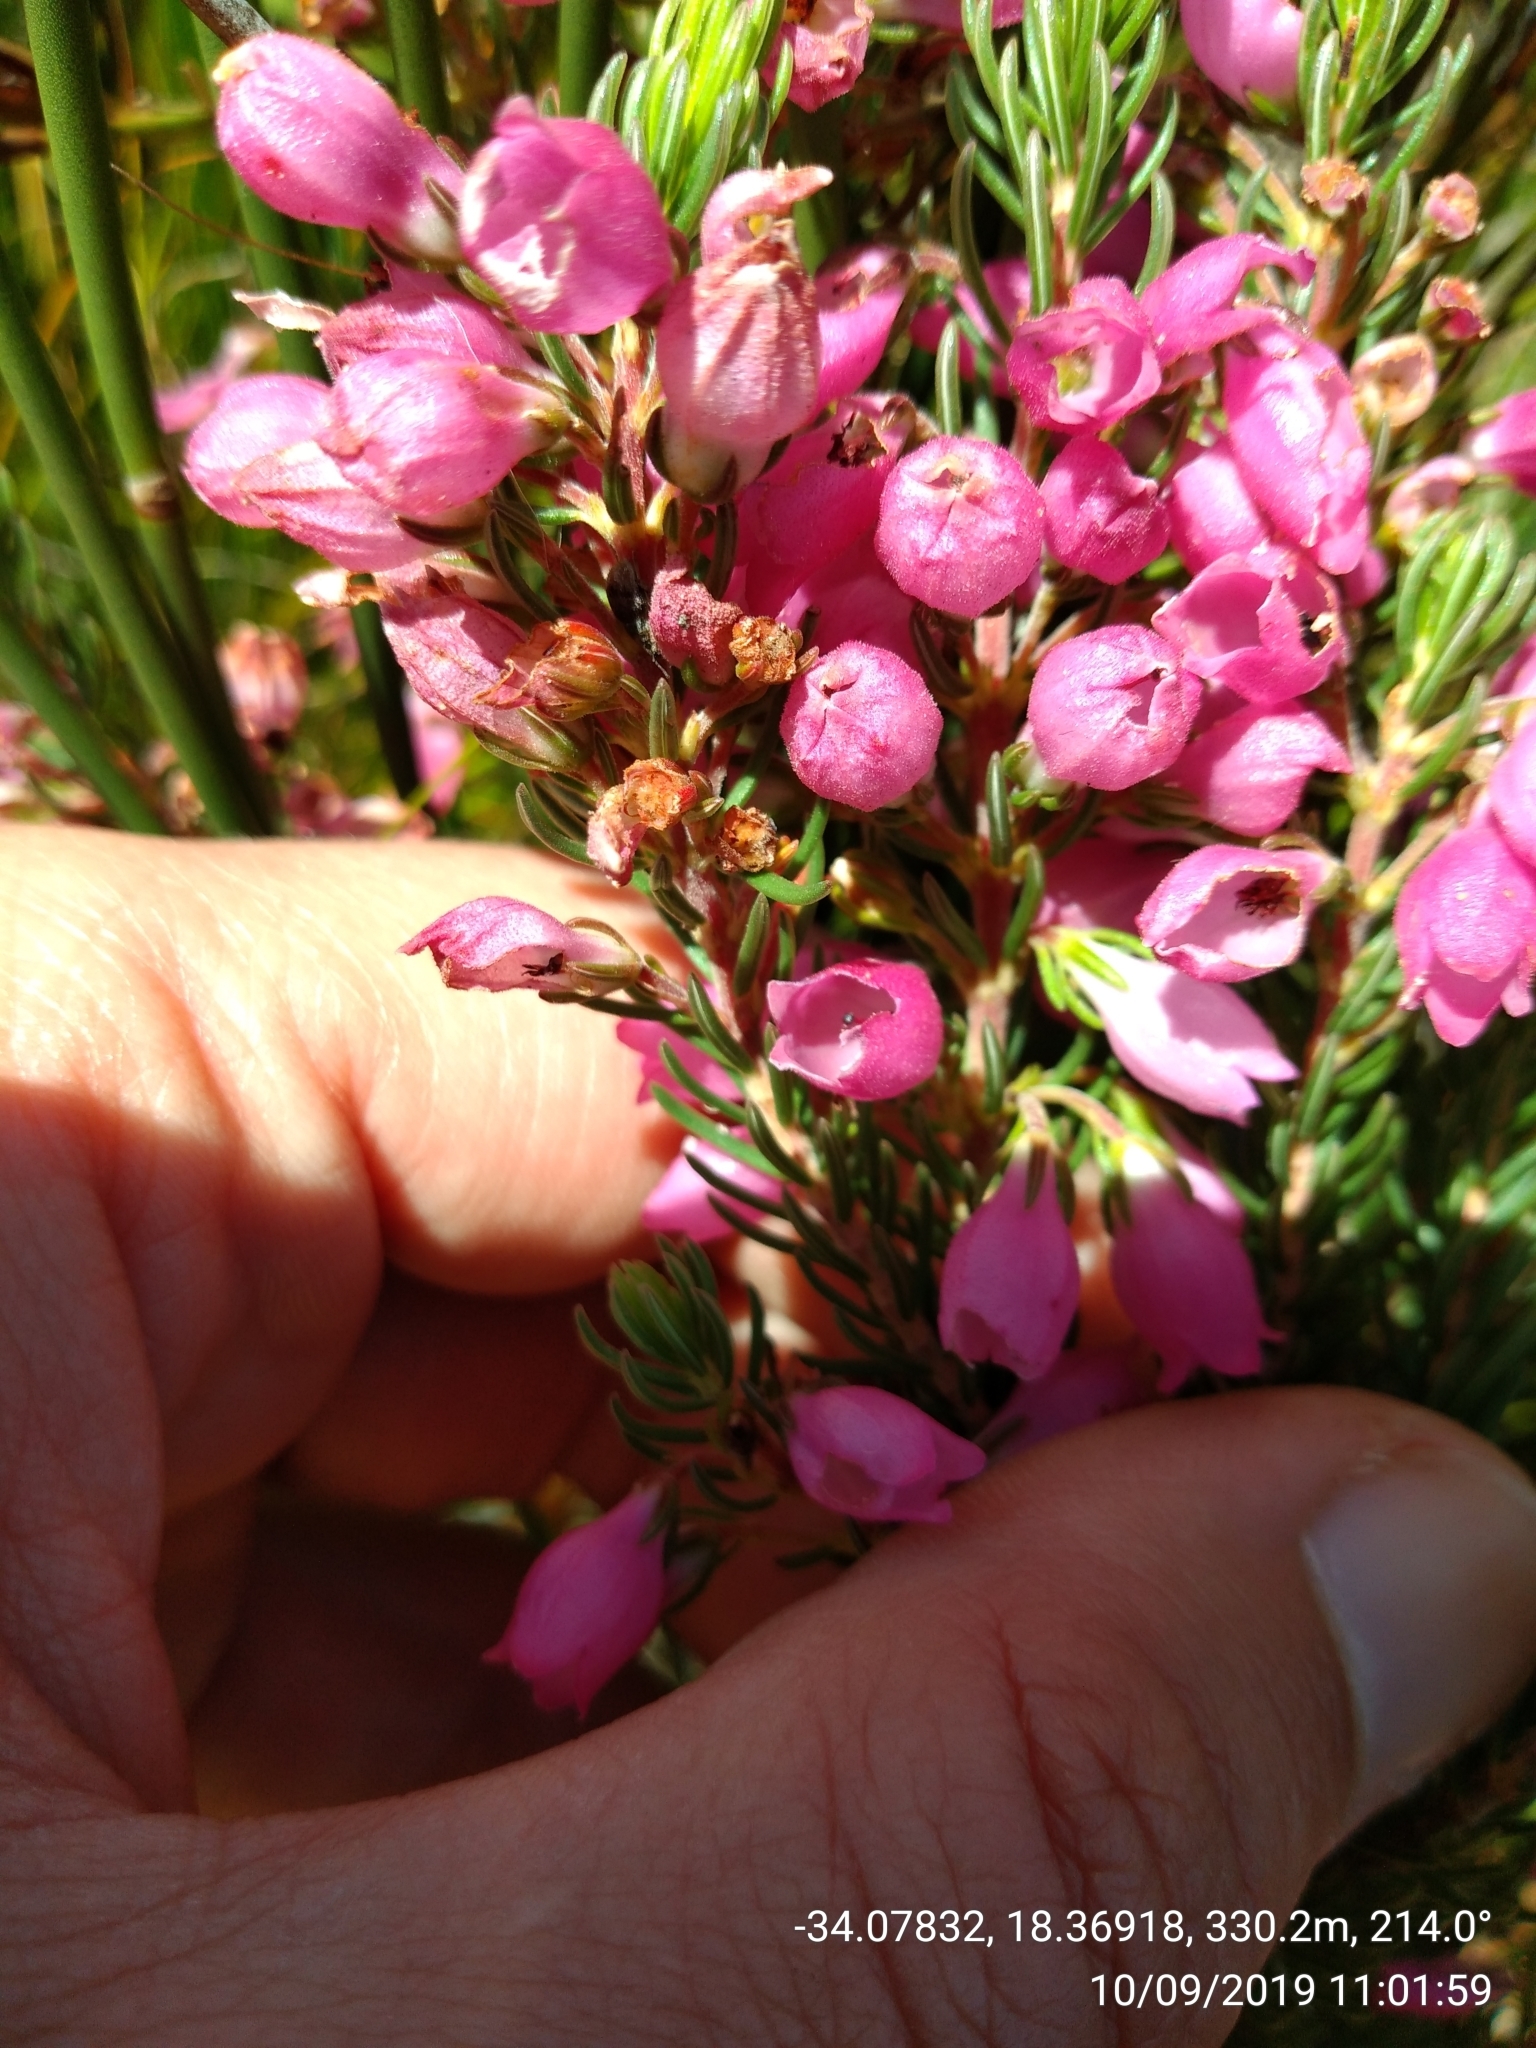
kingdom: Plantae
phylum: Tracheophyta
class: Magnoliopsida
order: Ericales
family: Ericaceae
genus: Erica
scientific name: Erica viscaria
